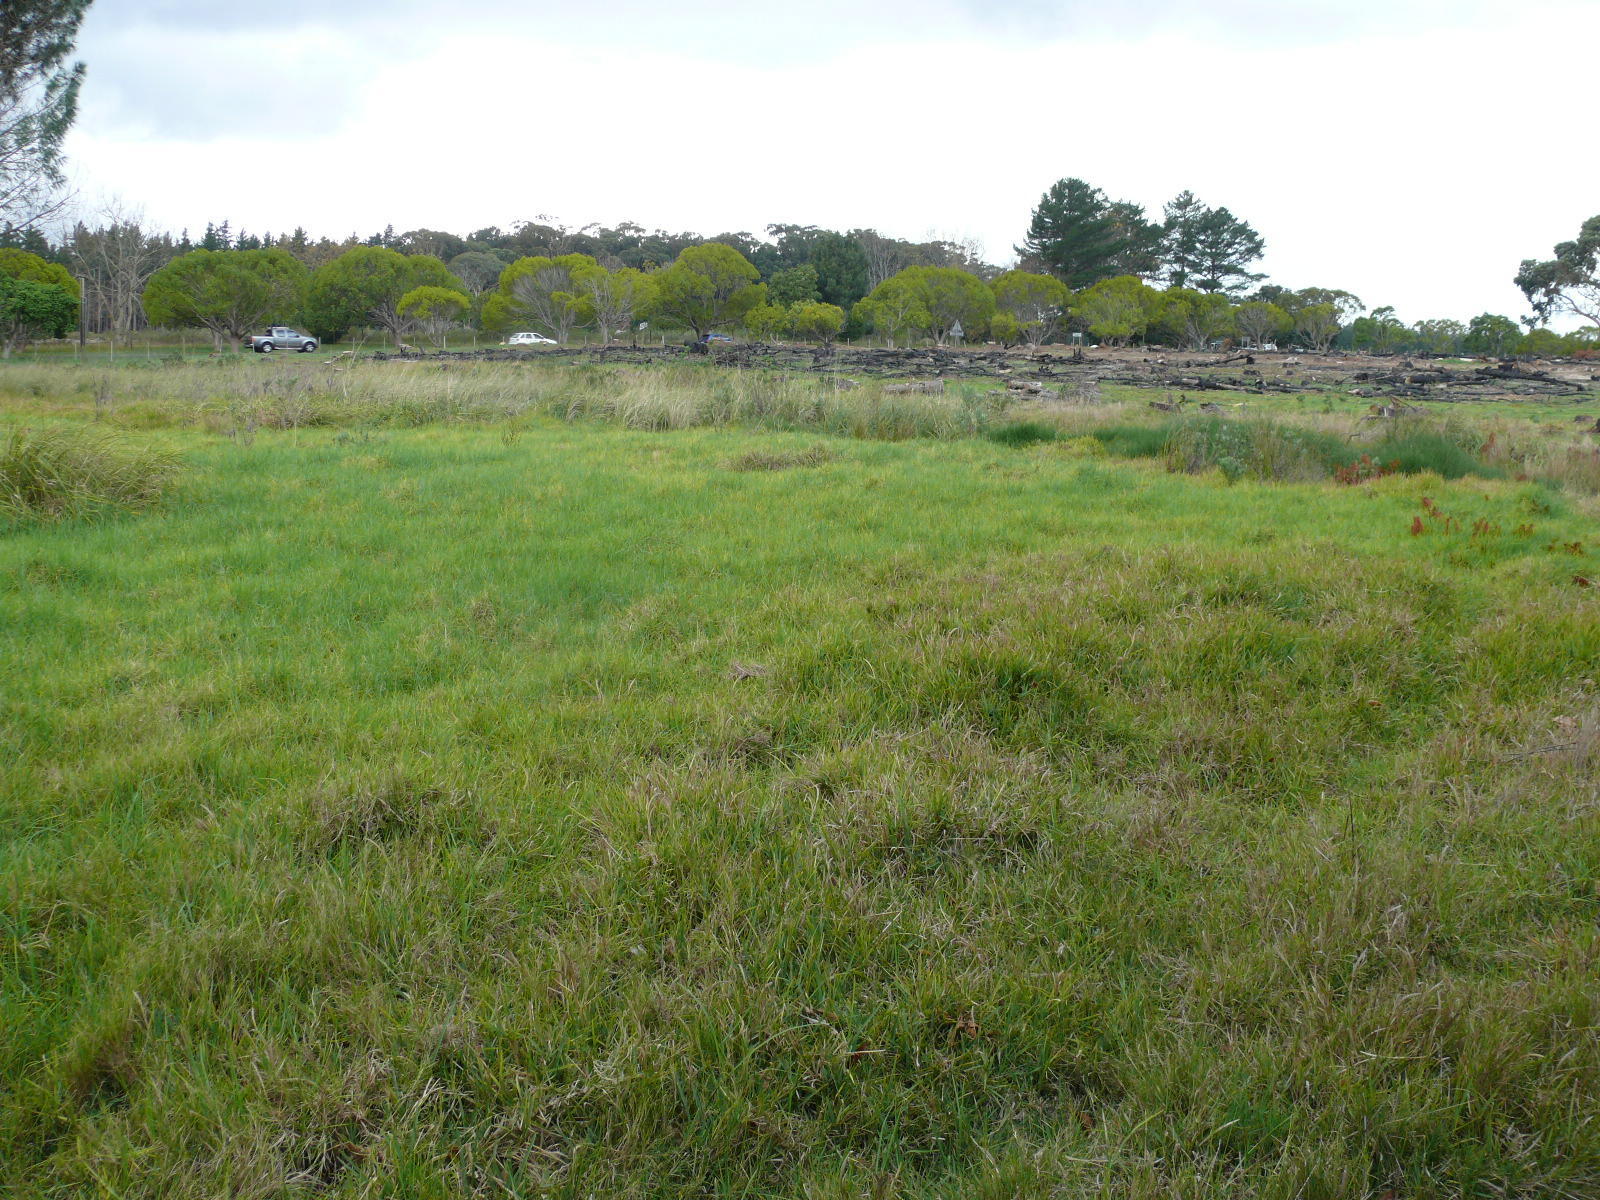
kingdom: Plantae
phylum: Tracheophyta
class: Liliopsida
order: Poales
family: Poaceae
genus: Cenchrus
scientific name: Cenchrus clandestinus
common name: Kikuyugrass
